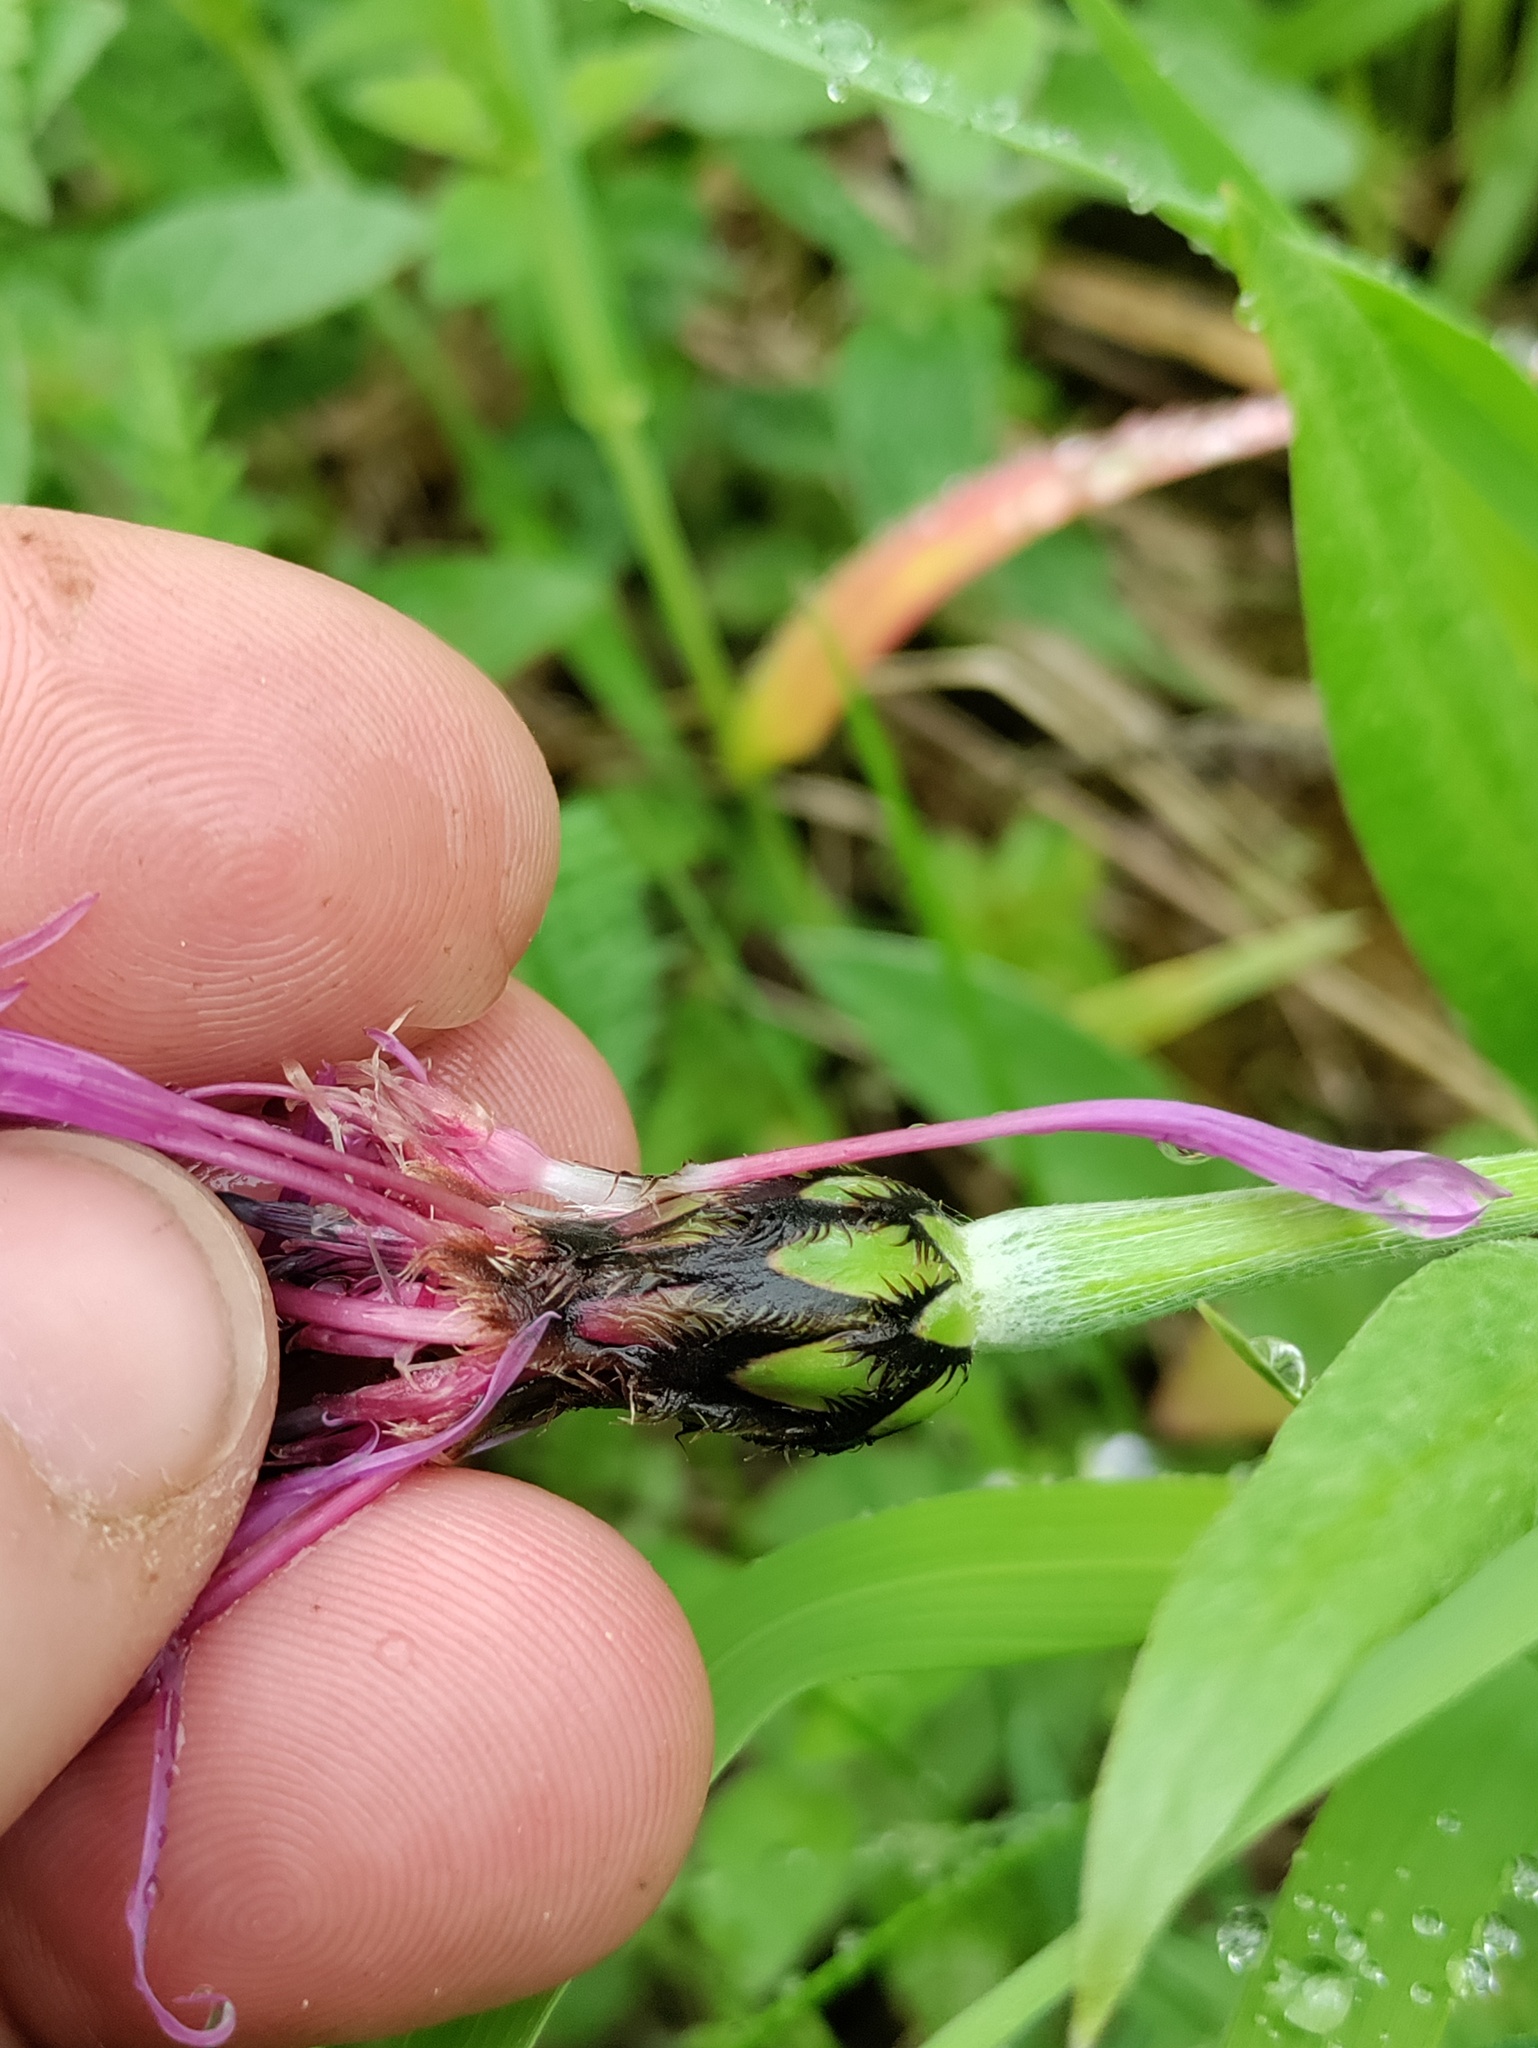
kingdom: Plantae
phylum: Tracheophyta
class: Magnoliopsida
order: Asterales
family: Asteraceae
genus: Centaurea
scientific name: Centaurea triumfettii
